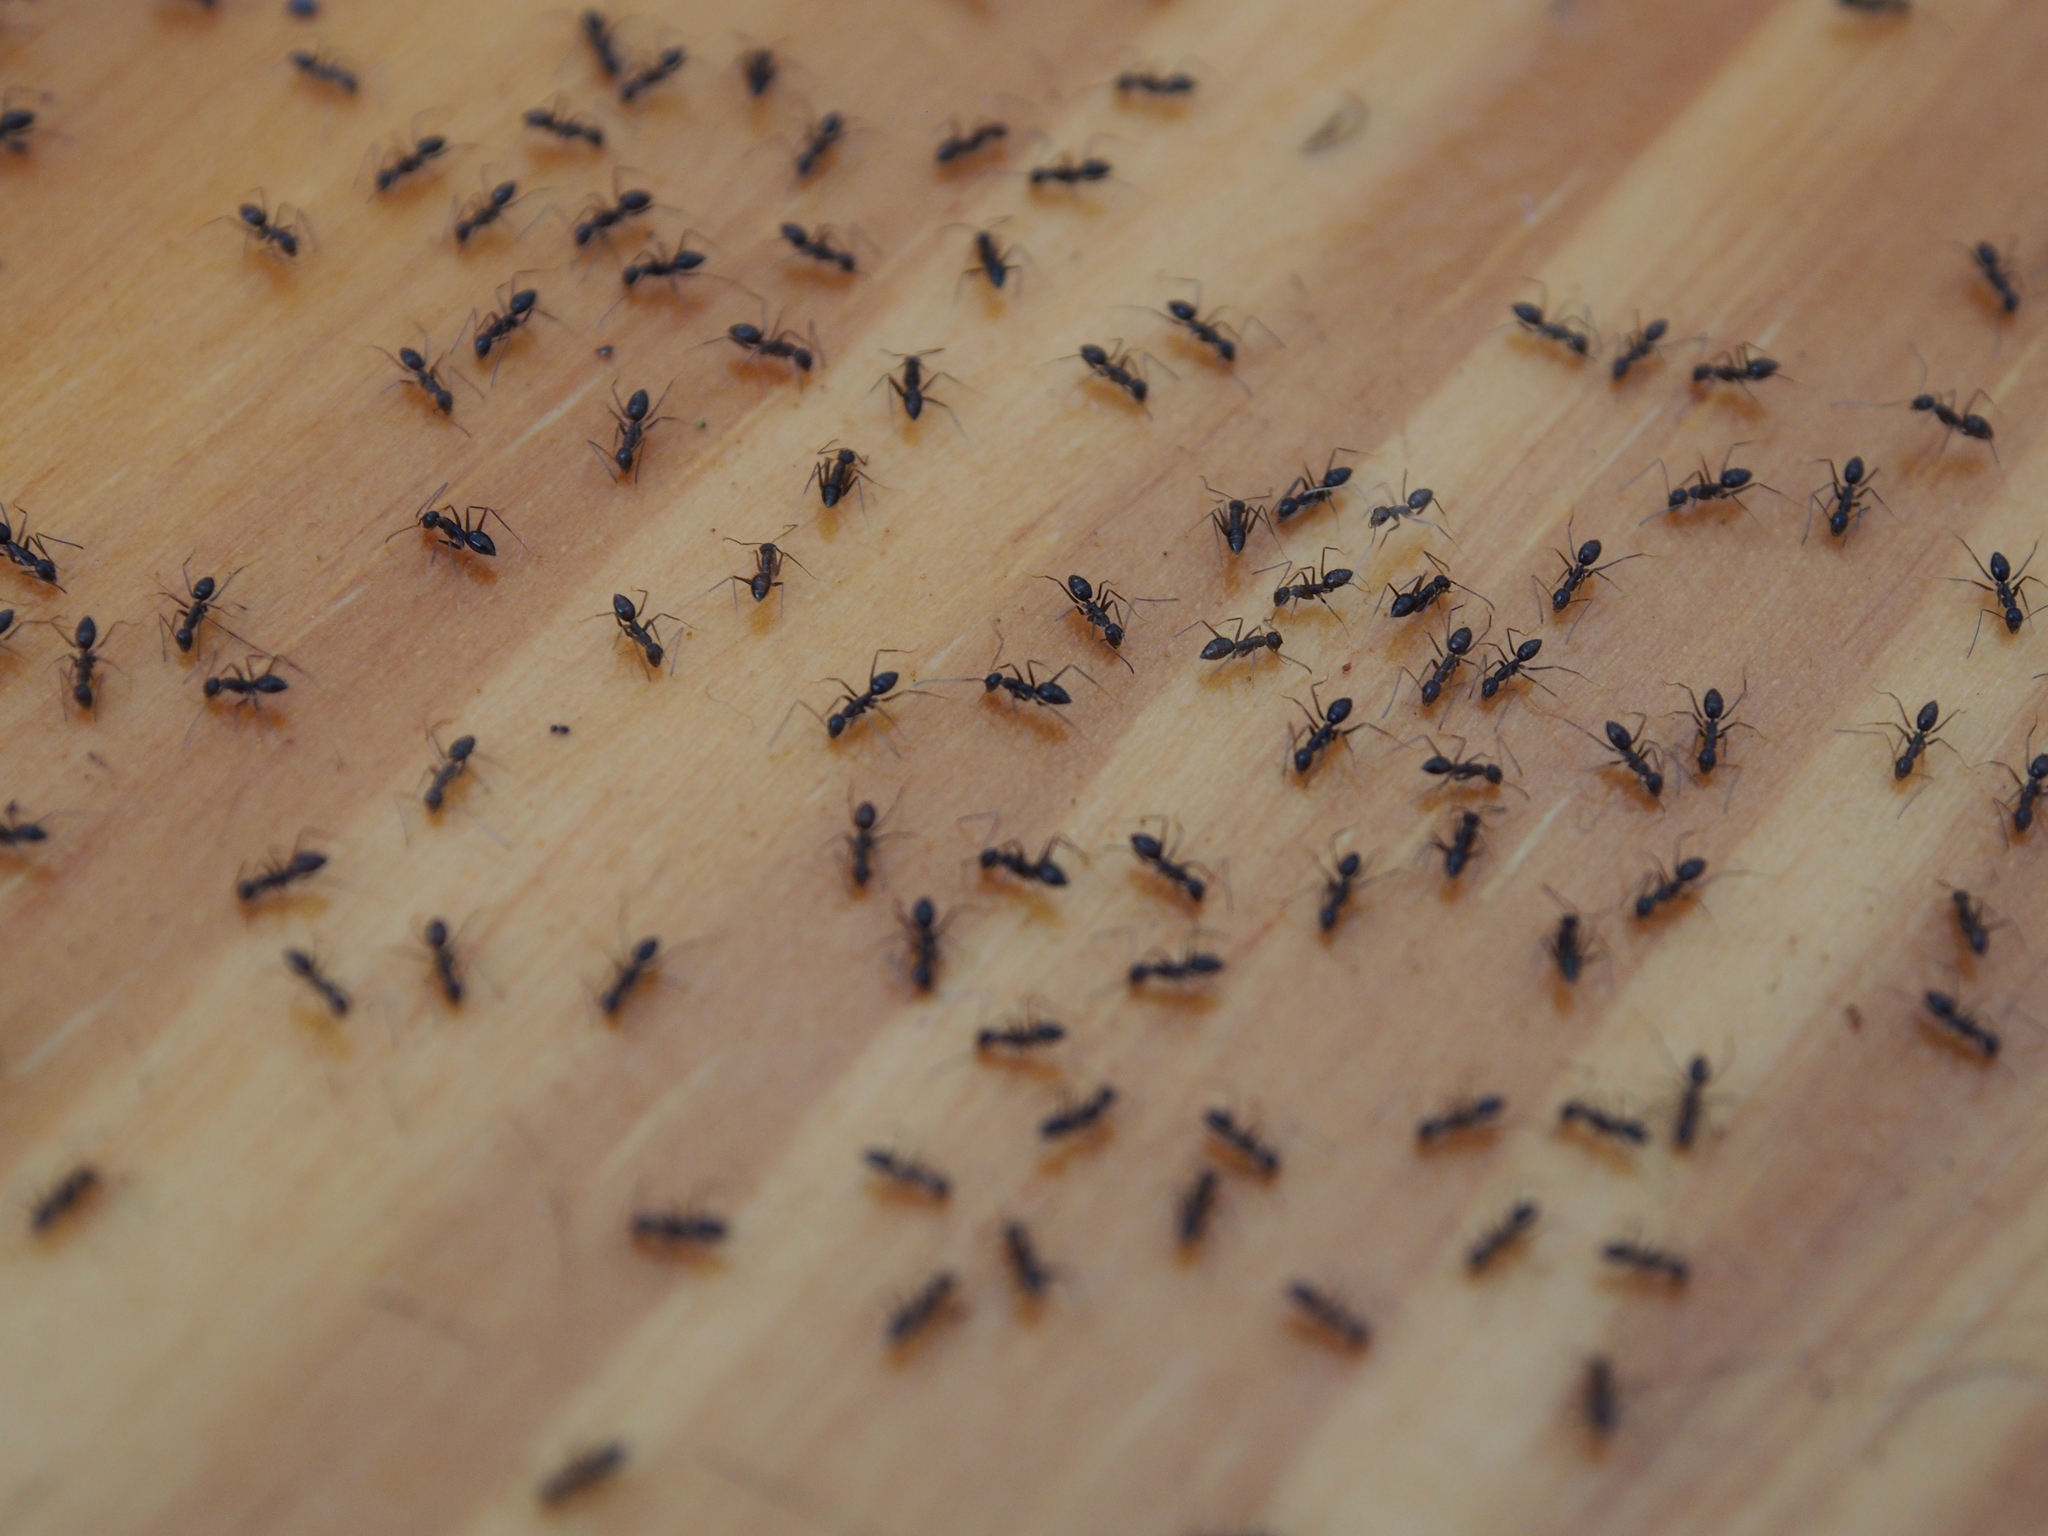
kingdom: Animalia
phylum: Arthropoda
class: Insecta
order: Hymenoptera
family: Formicidae
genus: Paratrechina
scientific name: Paratrechina longicornis
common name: Longhorned crazy ant
